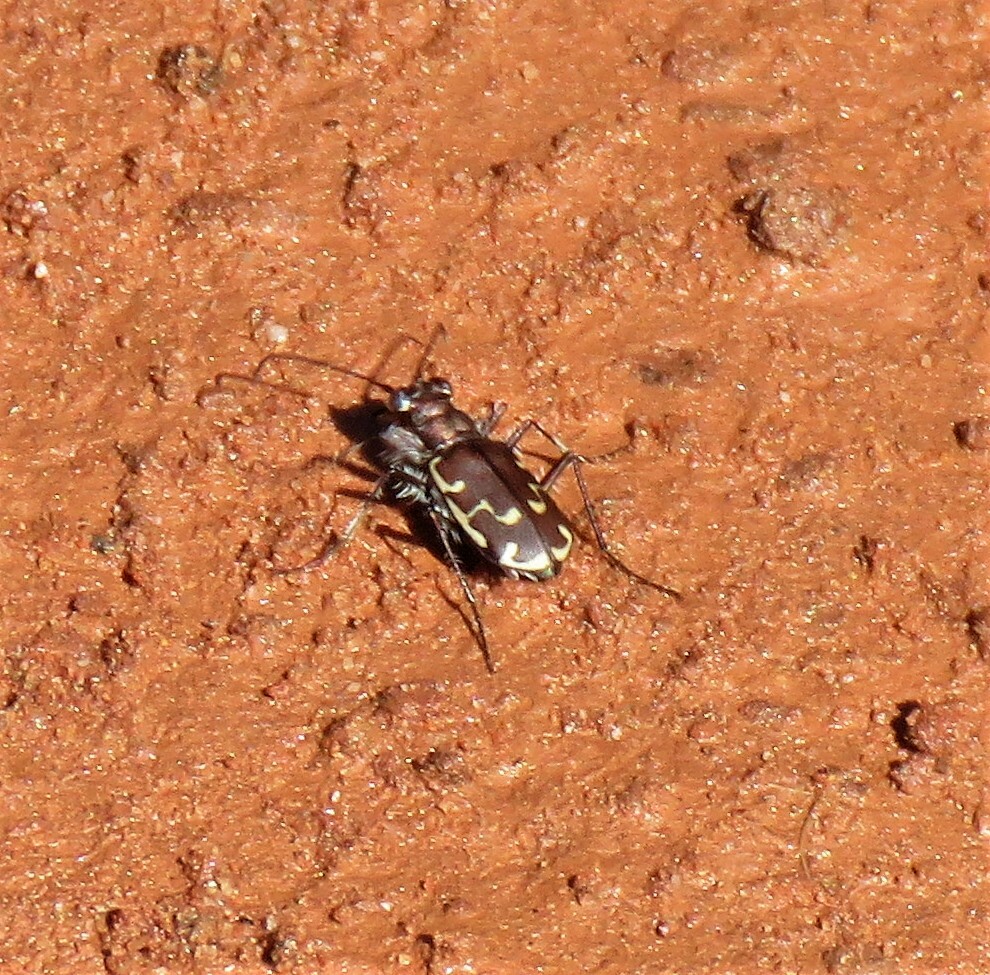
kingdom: Animalia
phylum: Arthropoda
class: Insecta
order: Coleoptera
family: Carabidae
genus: Cicindela
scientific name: Cicindela repanda
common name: Bronzed tiger beetle
